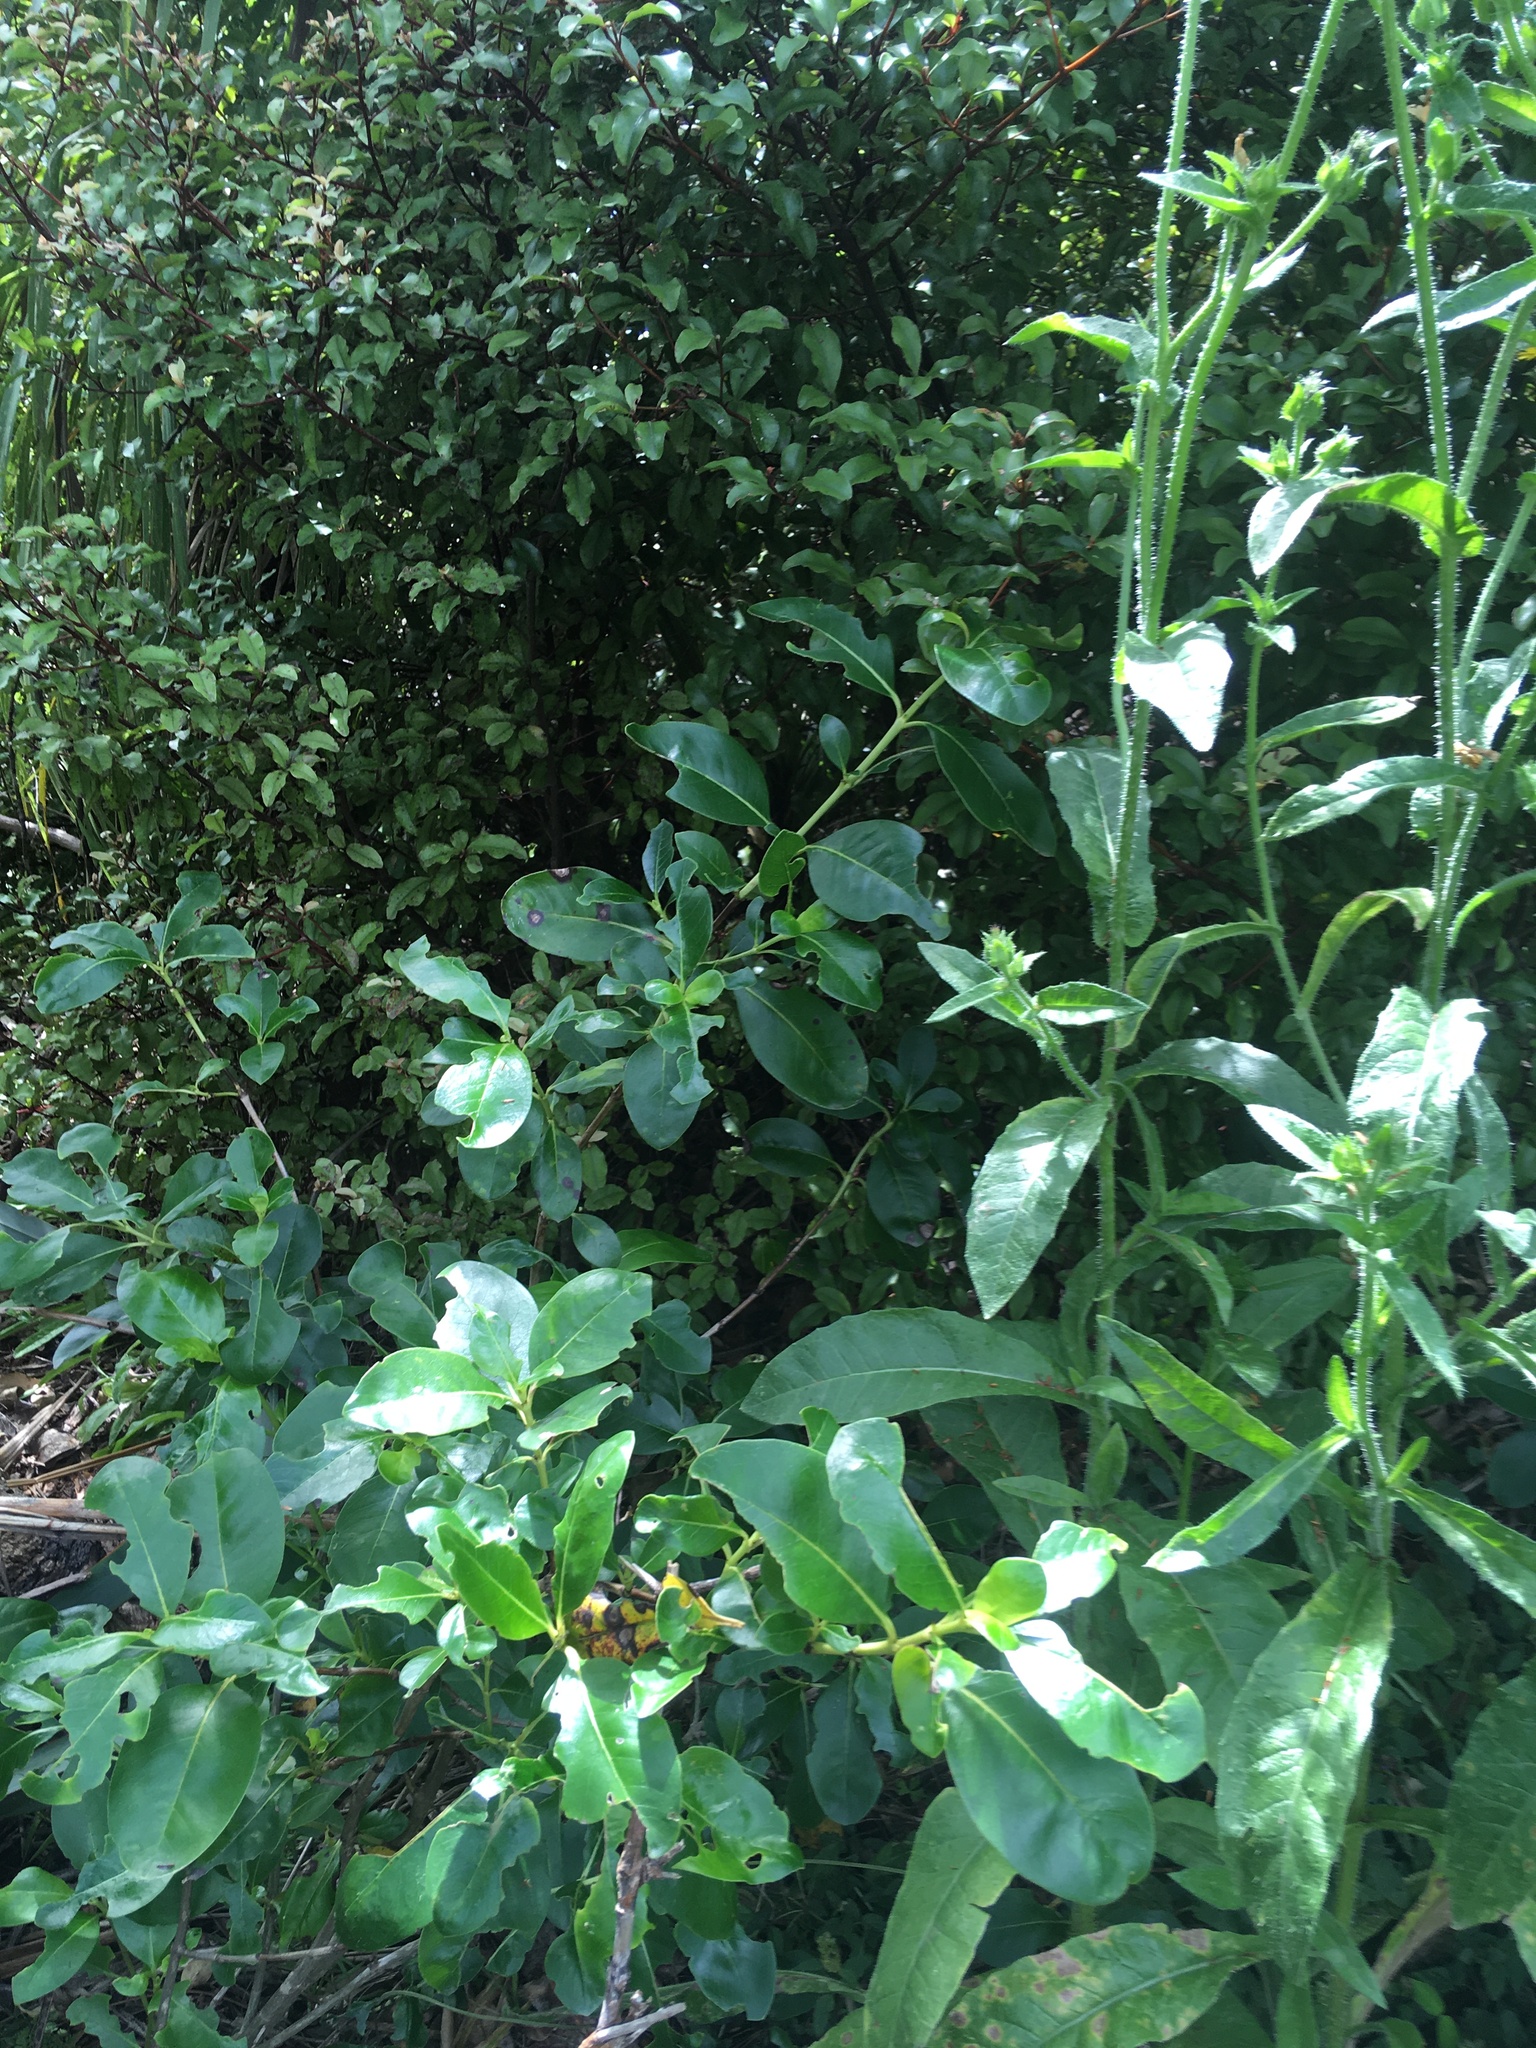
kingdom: Plantae
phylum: Tracheophyta
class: Magnoliopsida
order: Asterales
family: Asteraceae
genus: Helminthotheca
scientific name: Helminthotheca echioides
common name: Ox-tongue
